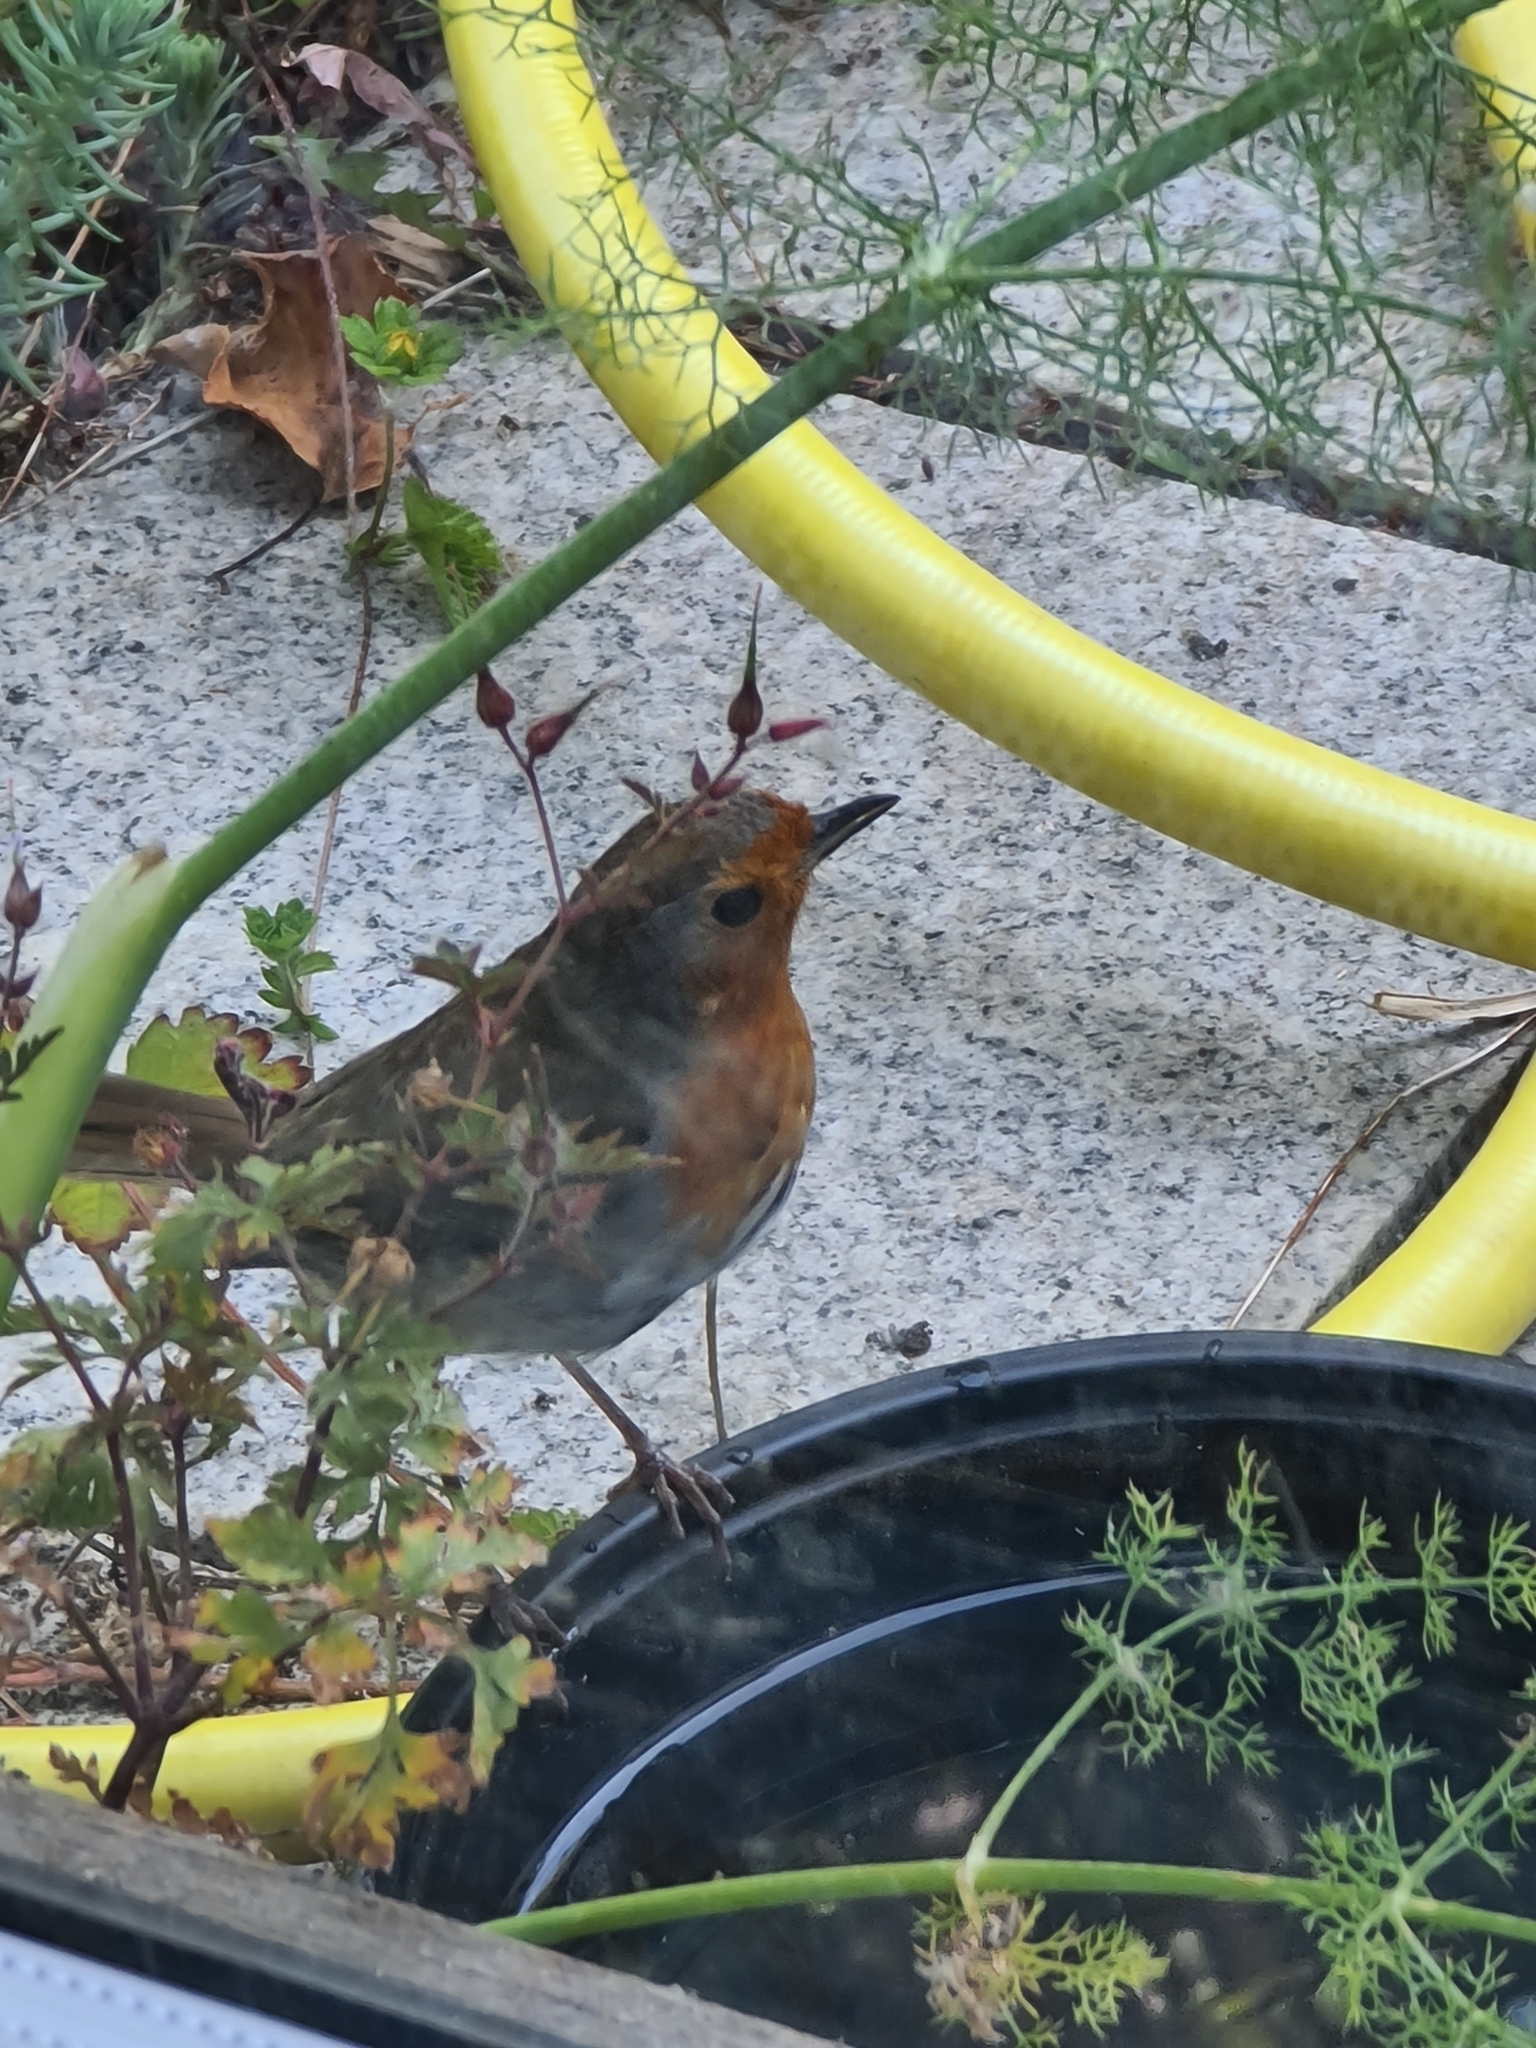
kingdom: Animalia
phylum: Chordata
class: Aves
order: Passeriformes
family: Muscicapidae
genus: Erithacus
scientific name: Erithacus rubecula
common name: European robin
